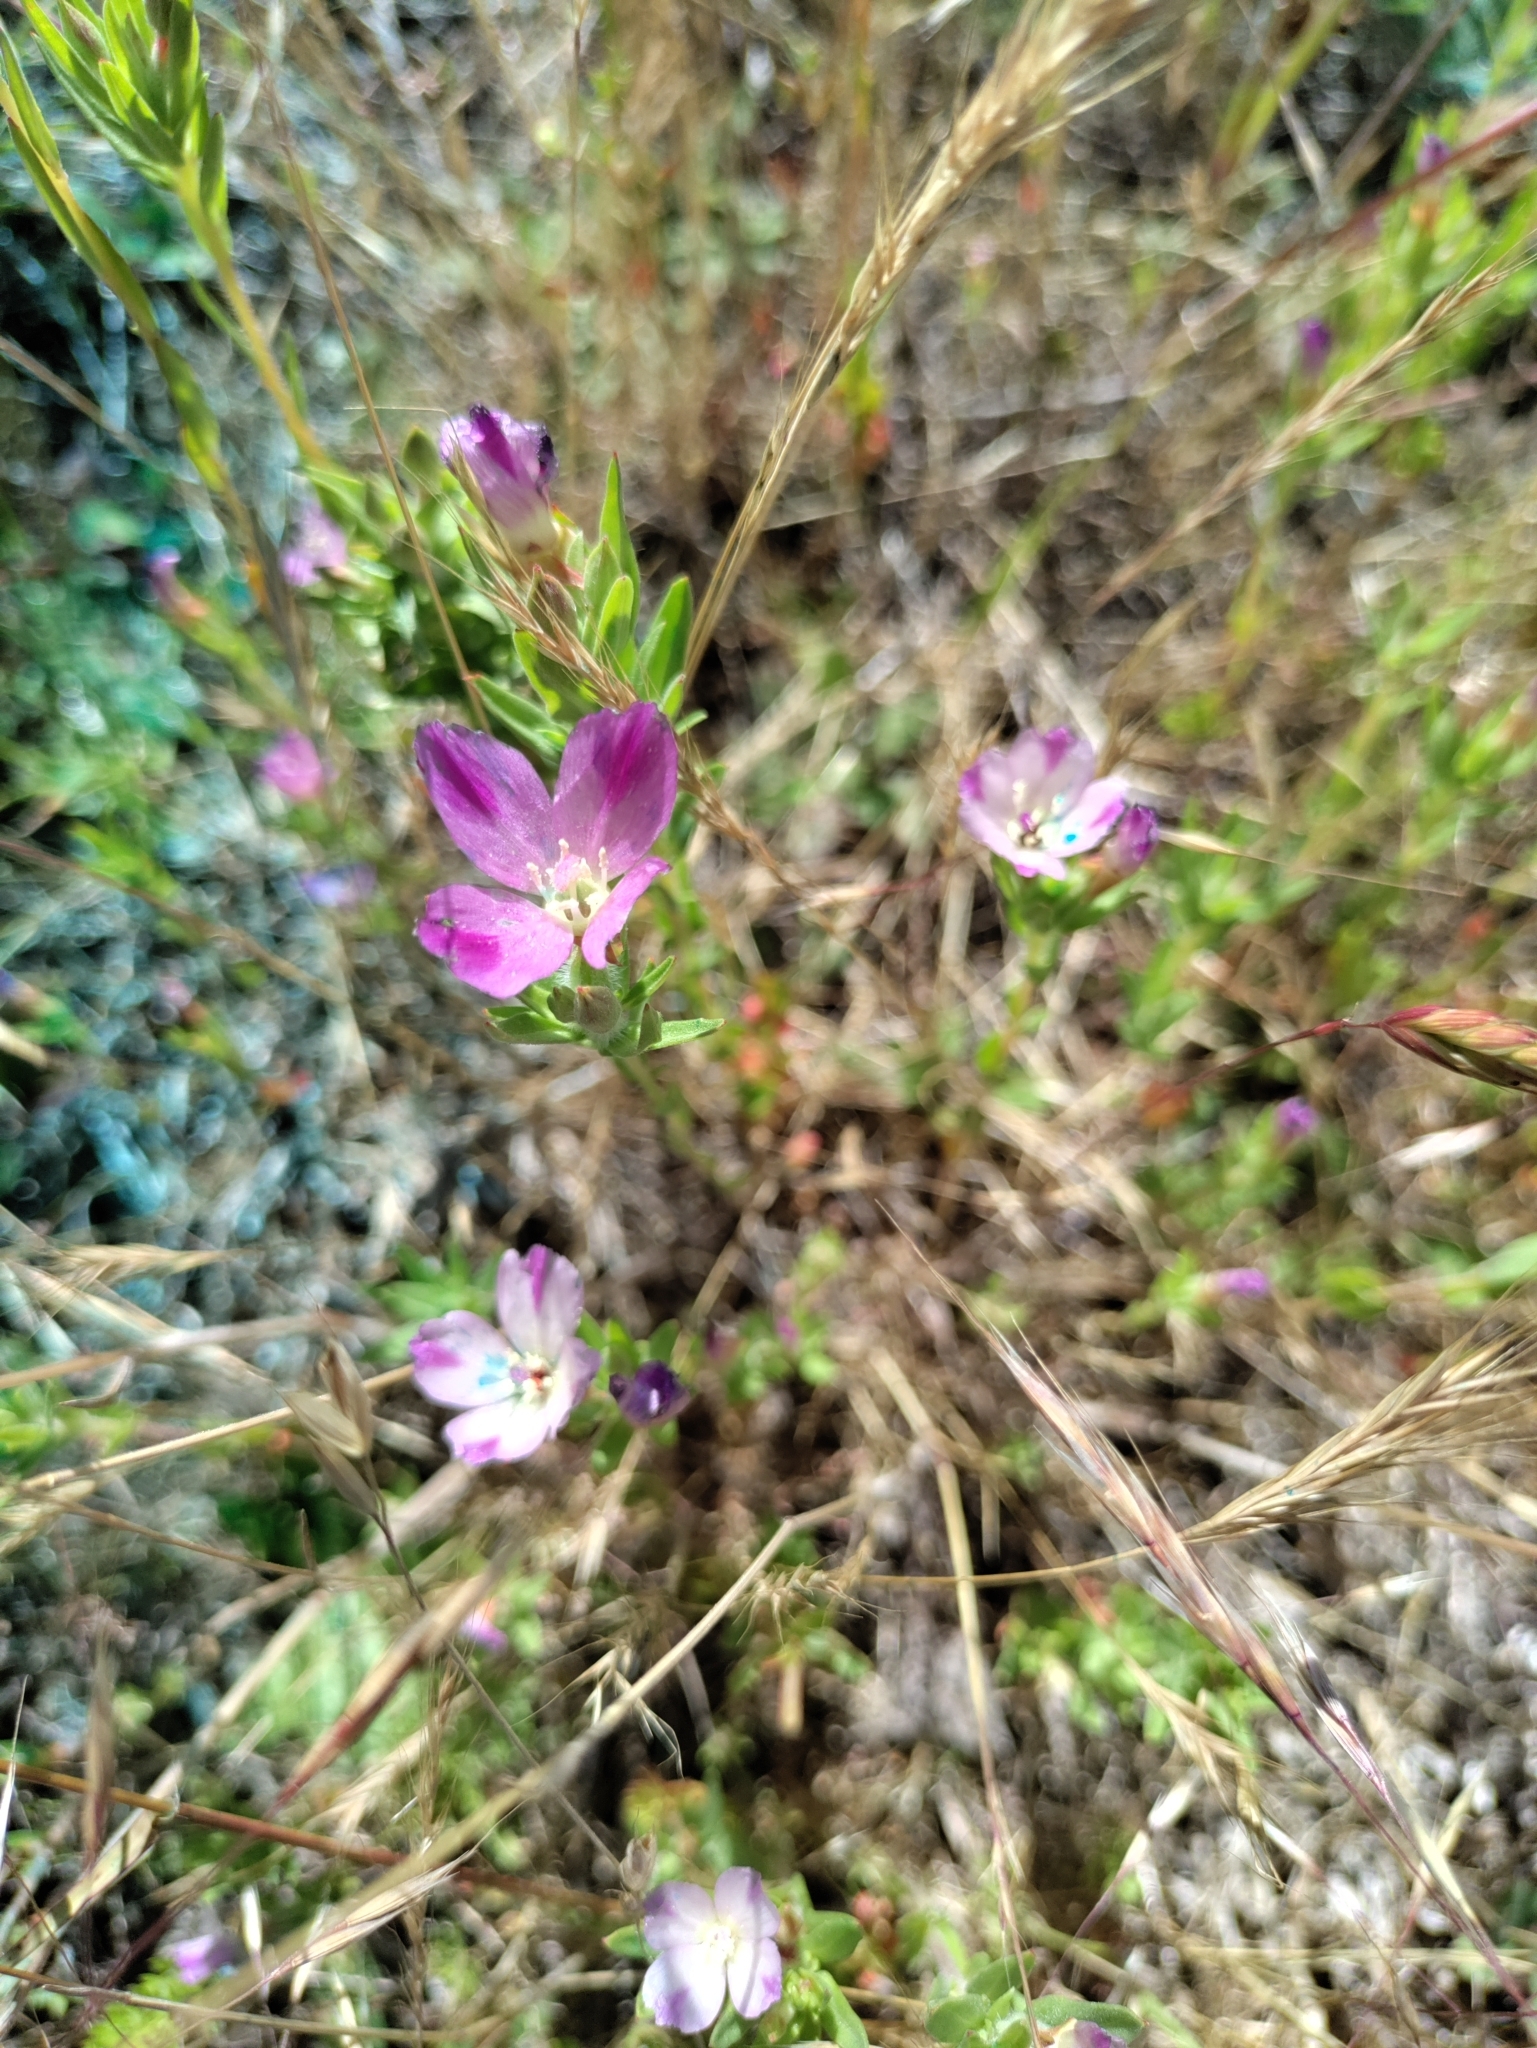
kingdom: Plantae
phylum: Tracheophyta
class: Magnoliopsida
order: Myrtales
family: Onagraceae
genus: Clarkia
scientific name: Clarkia purpurea
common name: Purple clarkia
